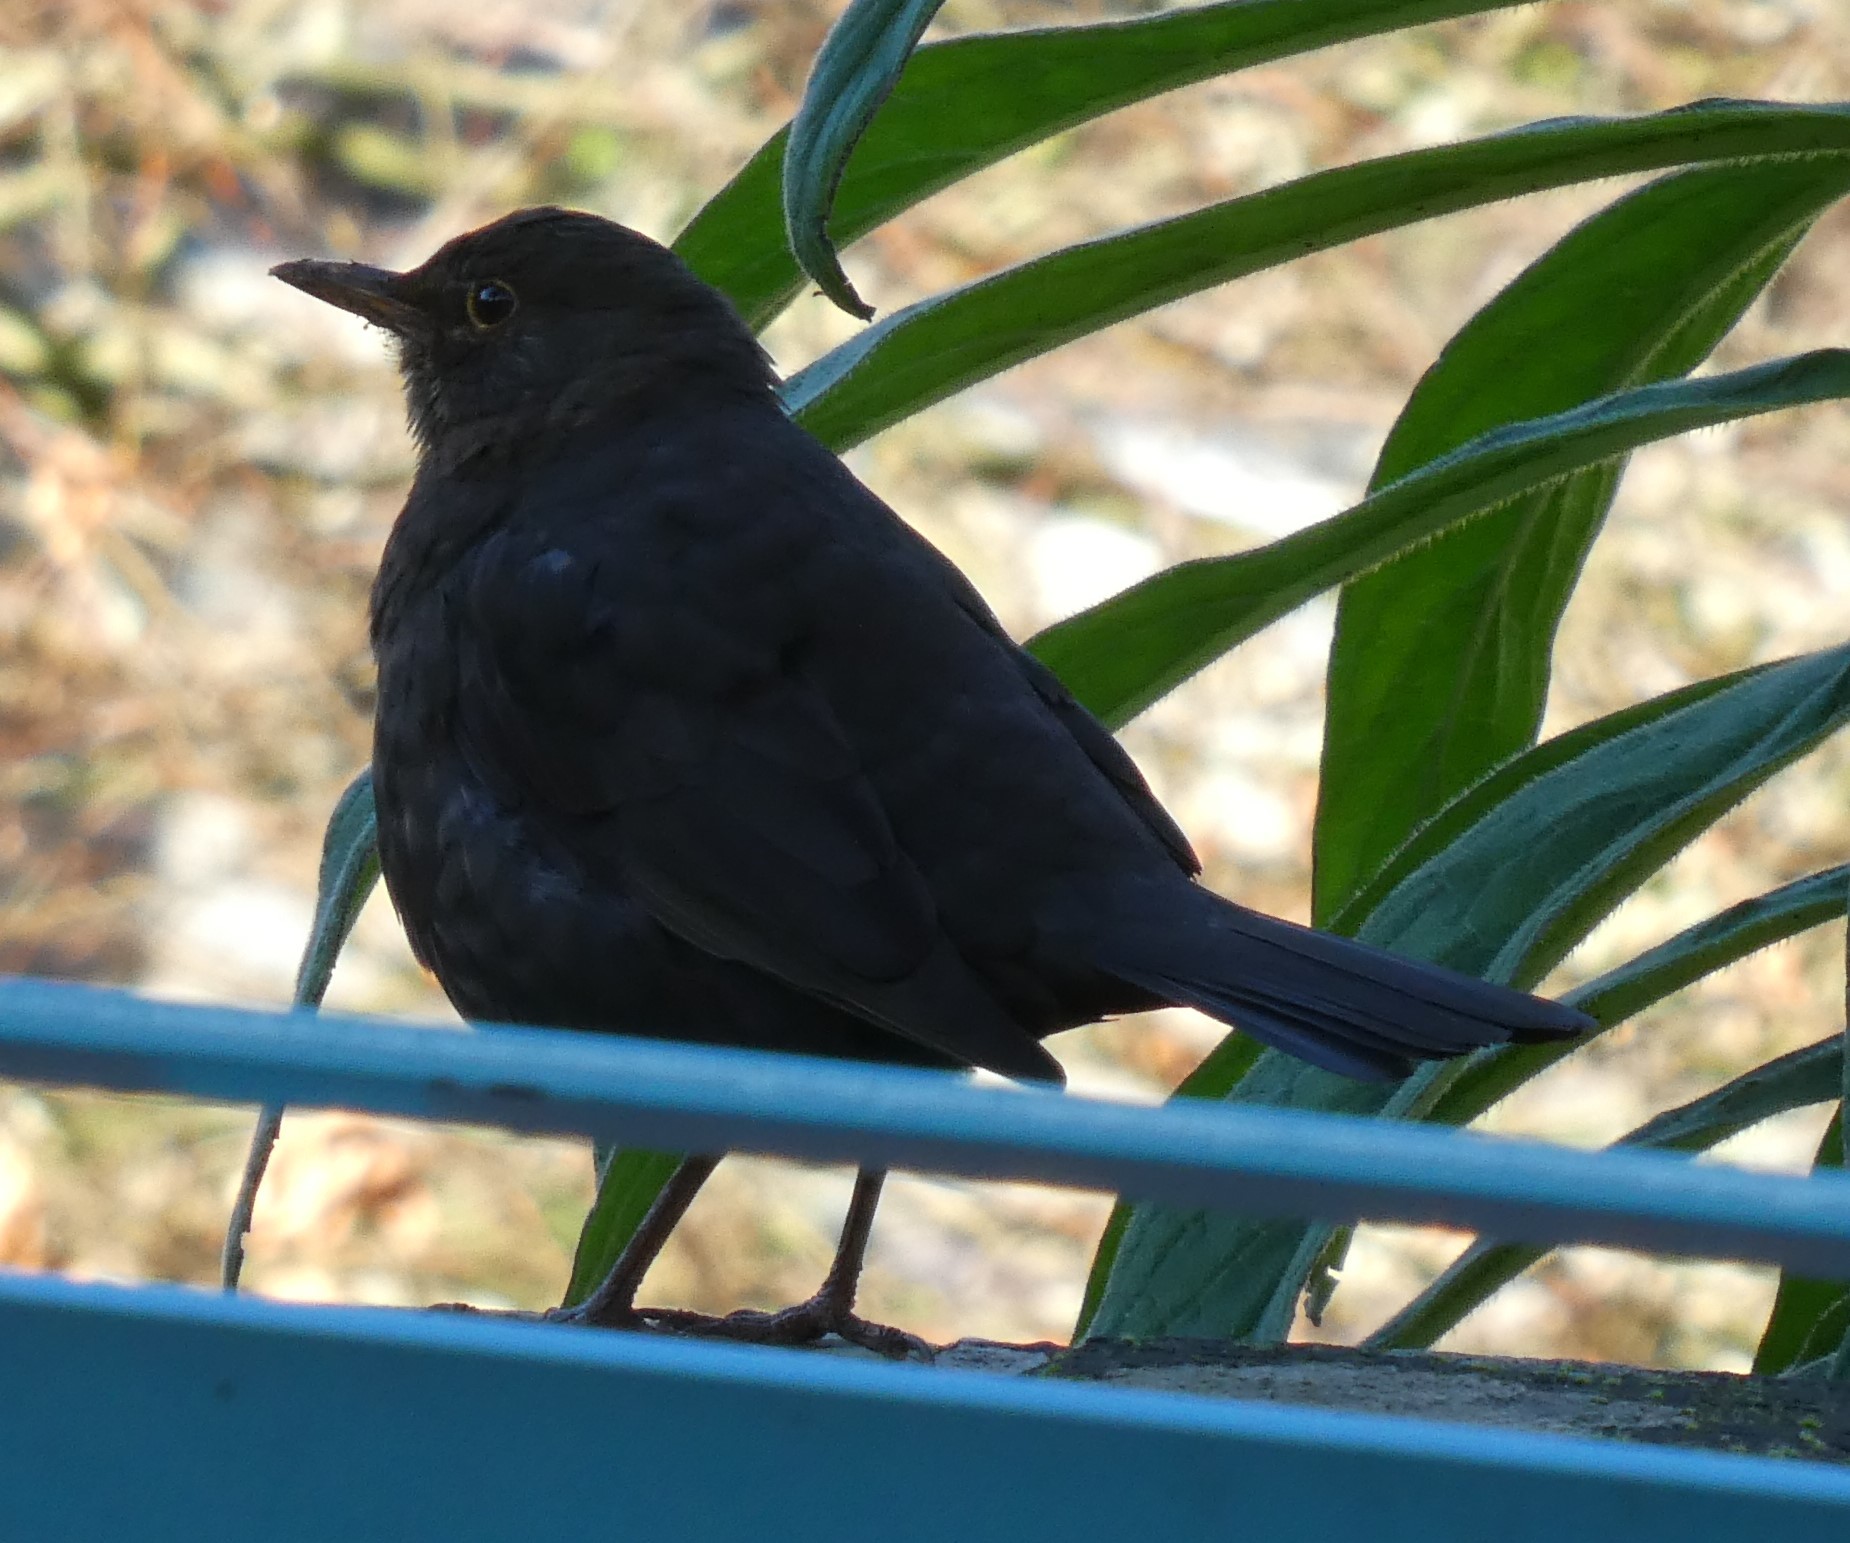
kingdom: Animalia
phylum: Chordata
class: Aves
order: Passeriformes
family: Turdidae
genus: Turdus
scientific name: Turdus merula
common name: Common blackbird
